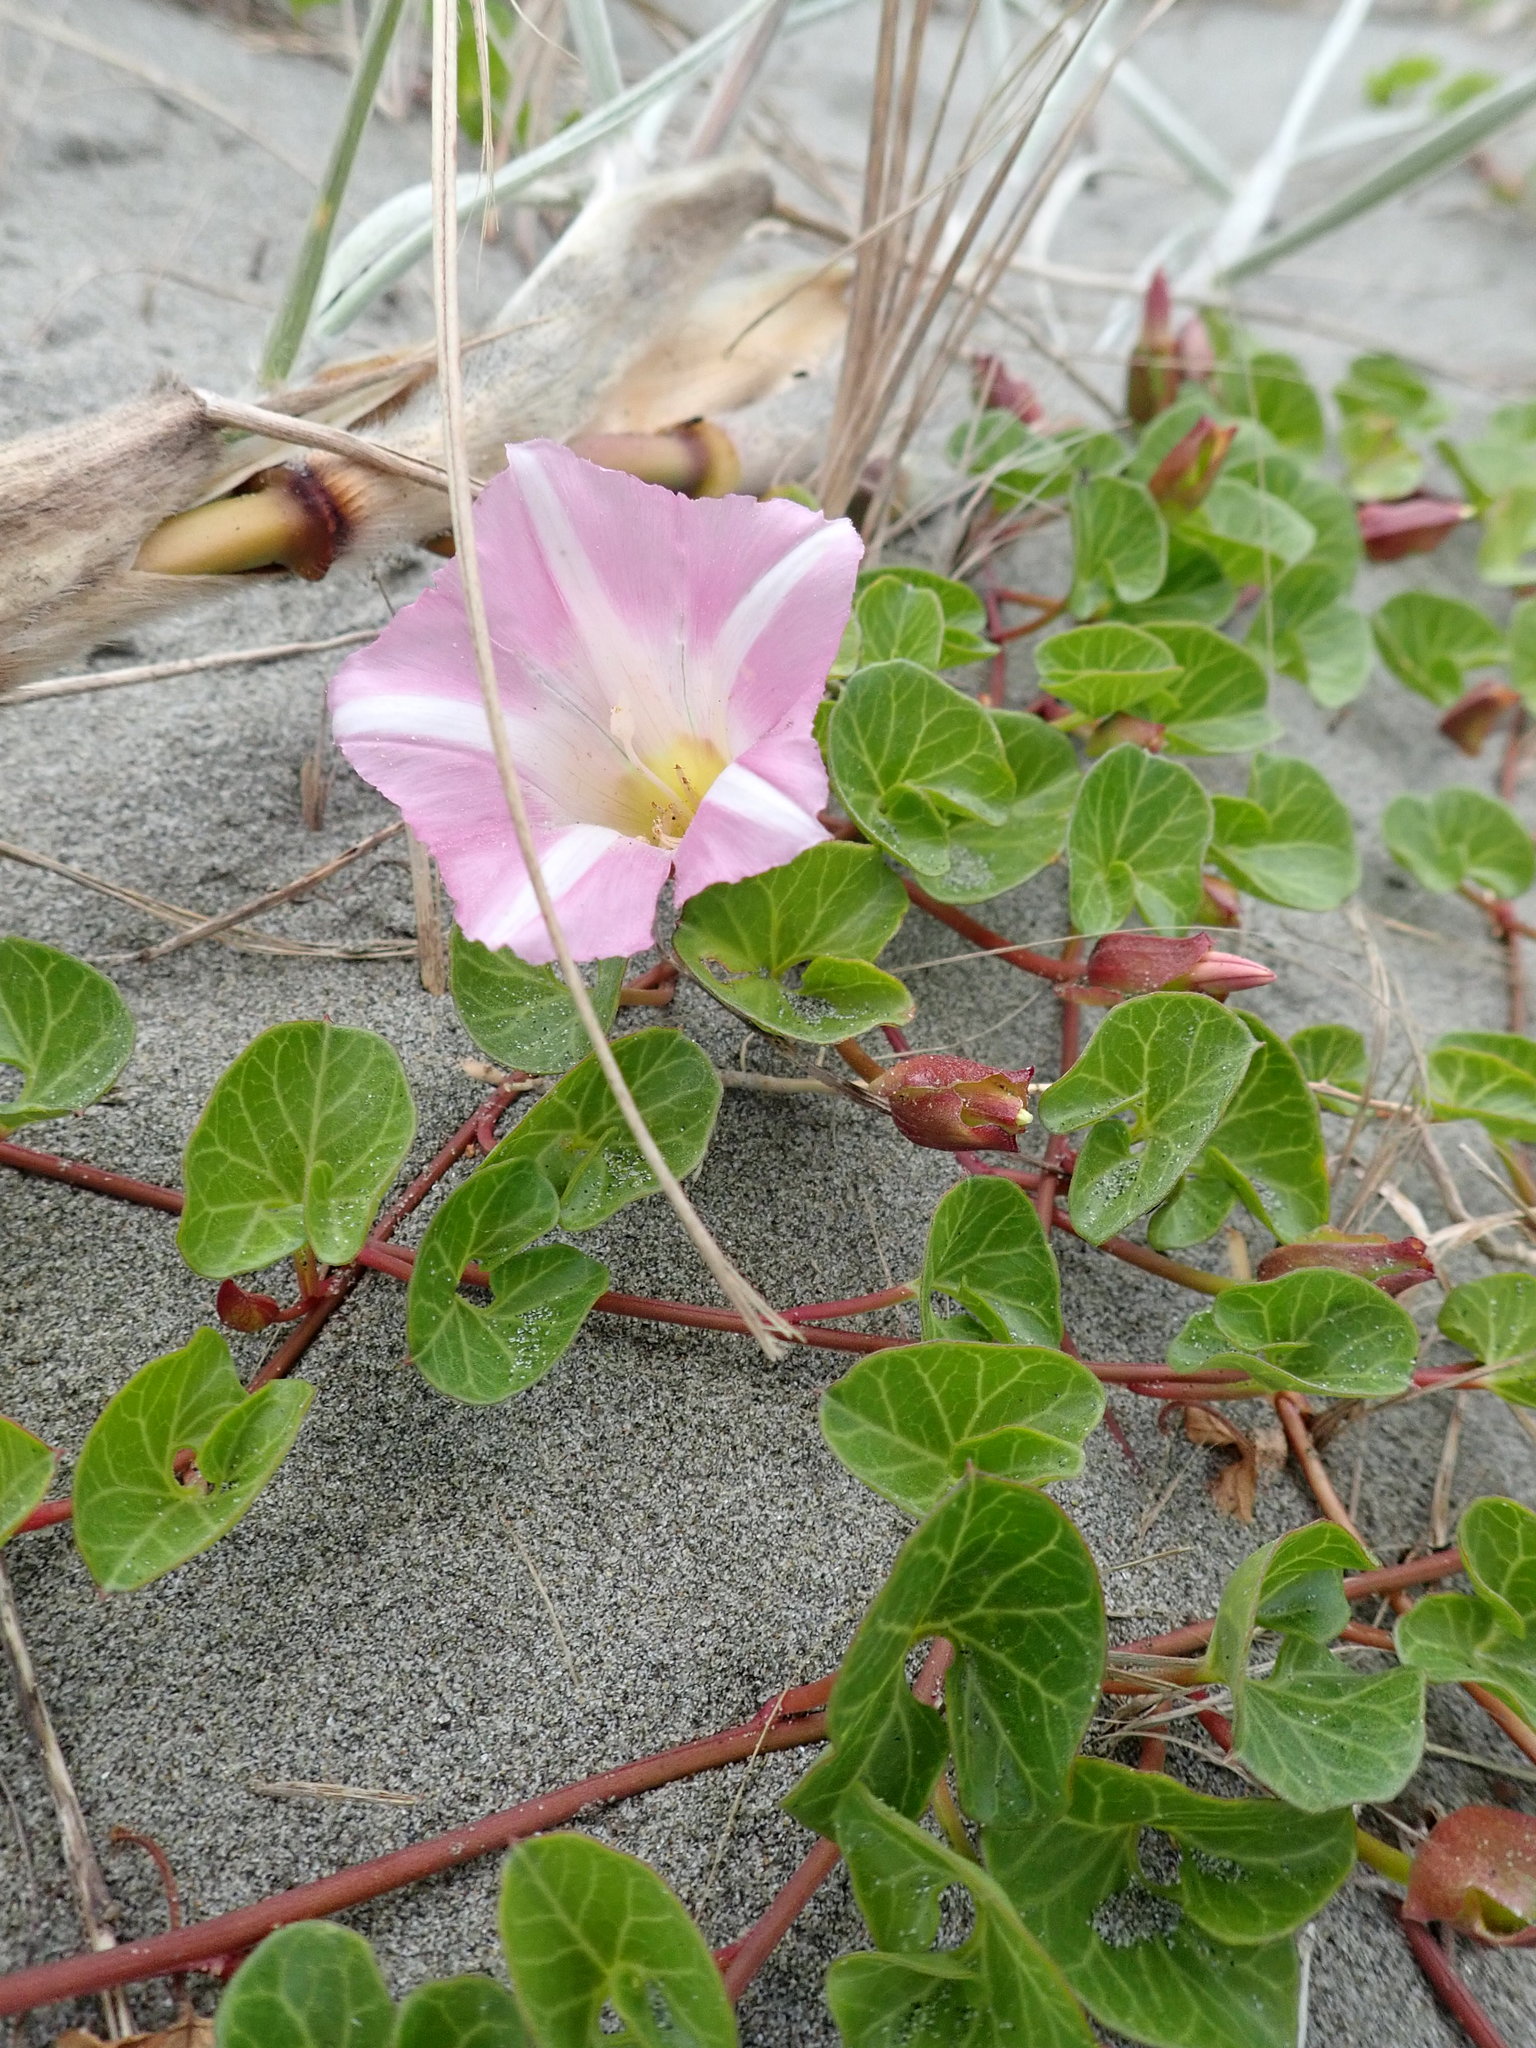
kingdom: Plantae
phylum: Tracheophyta
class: Magnoliopsida
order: Solanales
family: Convolvulaceae
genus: Calystegia
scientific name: Calystegia soldanella
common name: Sea bindweed
